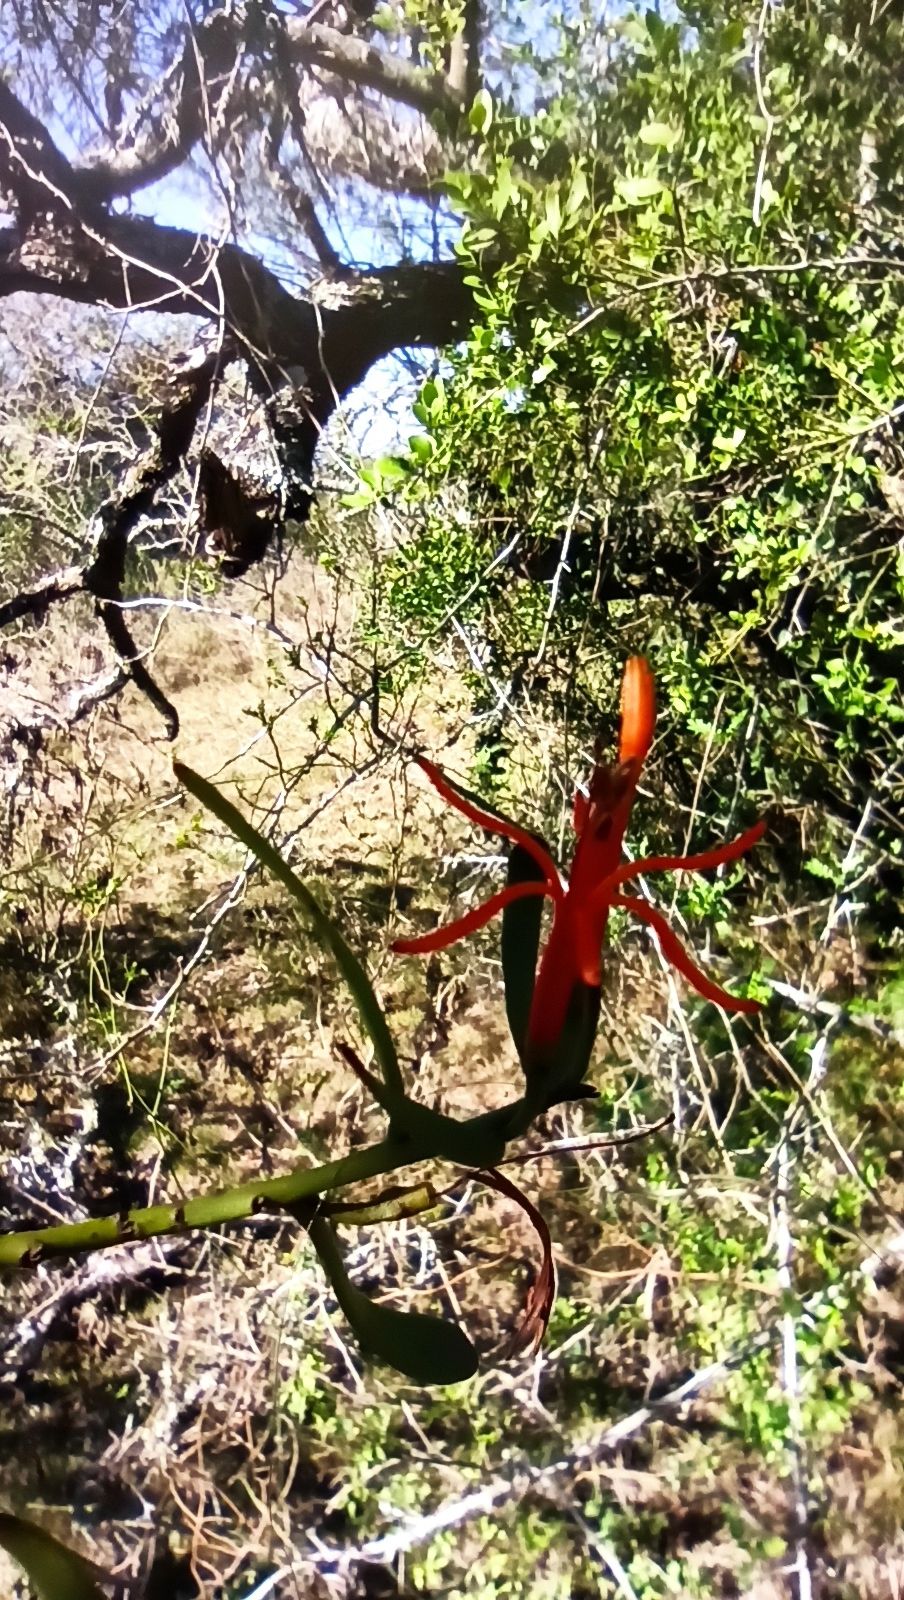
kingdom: Plantae
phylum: Tracheophyta
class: Magnoliopsida
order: Santalales
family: Loranthaceae
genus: Ligaria
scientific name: Ligaria cuneifolia
